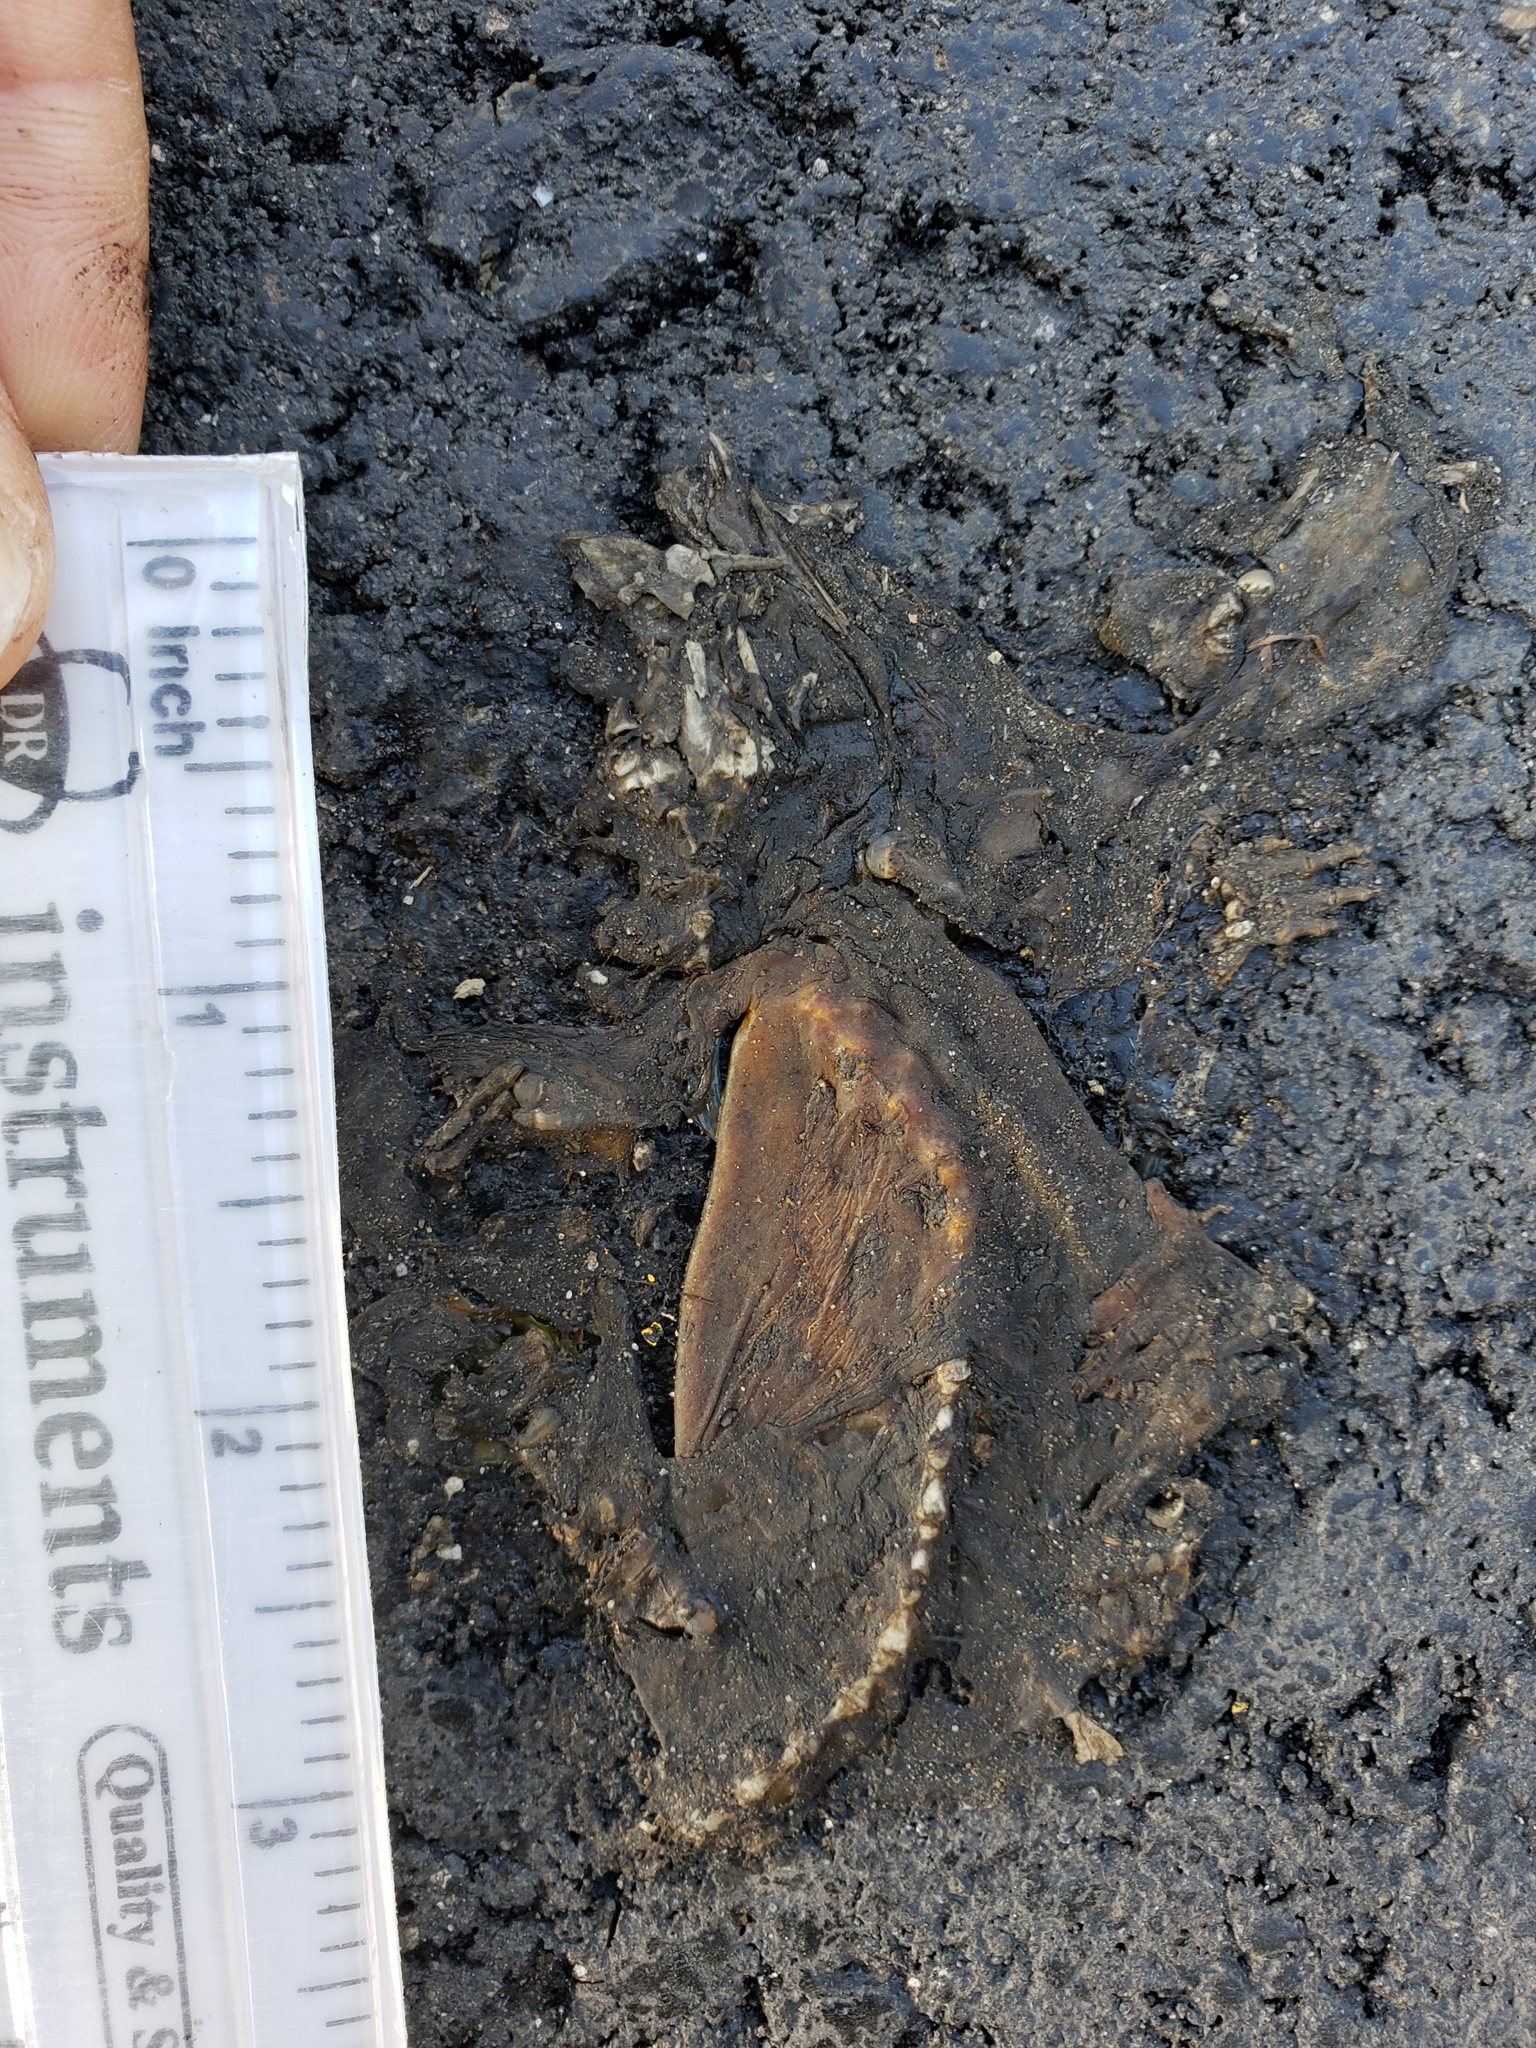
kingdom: Animalia
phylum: Chordata
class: Amphibia
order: Caudata
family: Salamandridae
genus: Taricha
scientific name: Taricha
